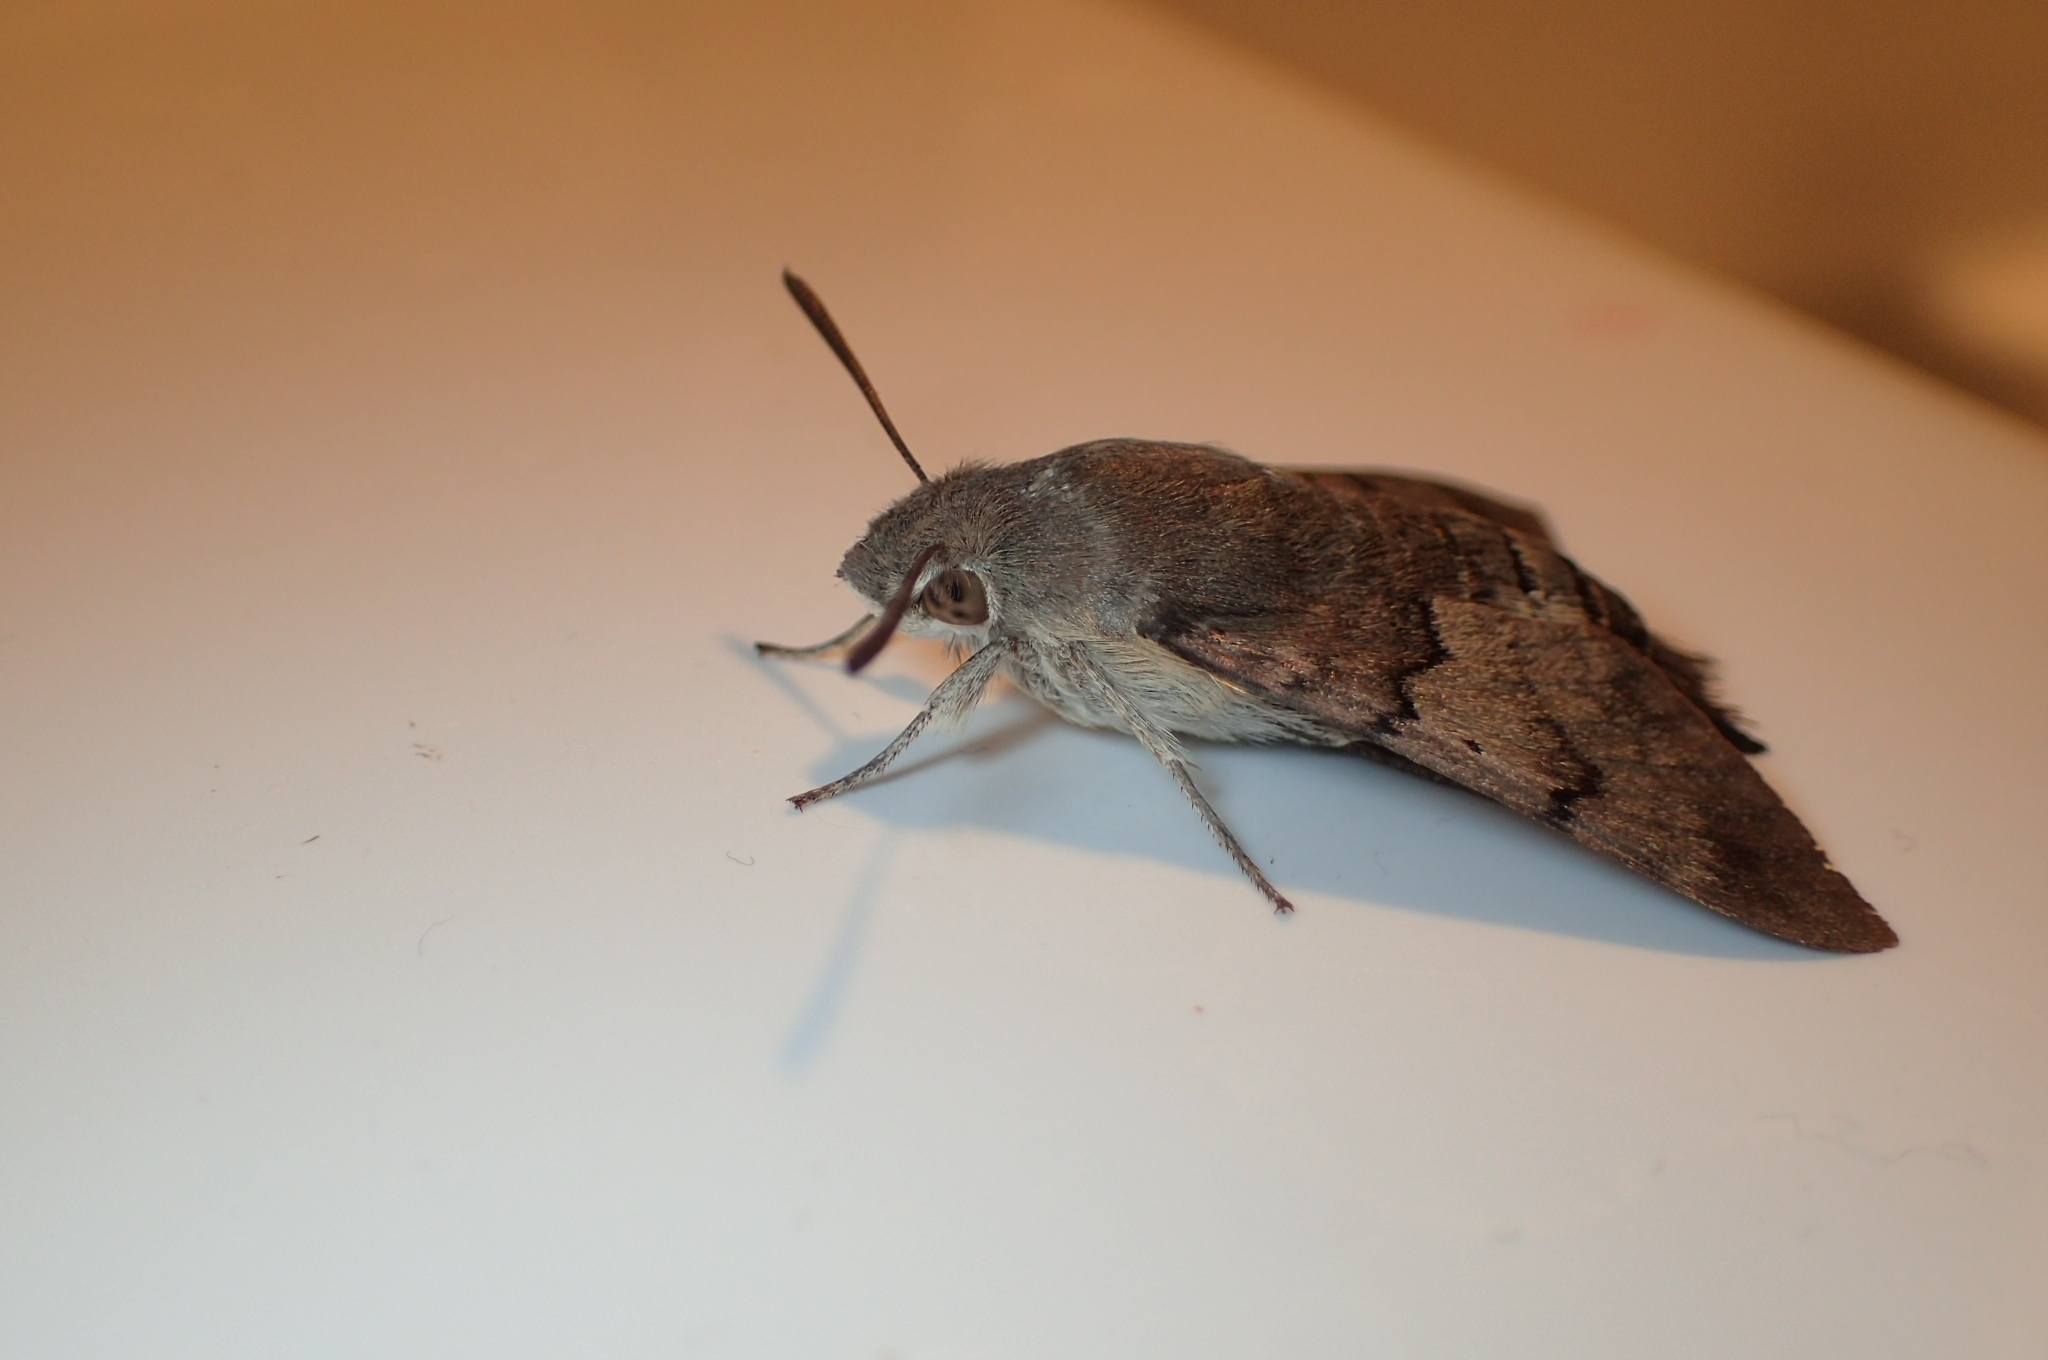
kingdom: Animalia
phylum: Arthropoda
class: Insecta
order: Lepidoptera
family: Sphingidae
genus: Macroglossum
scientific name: Macroglossum stellatarum
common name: Humming-bird hawk-moth
